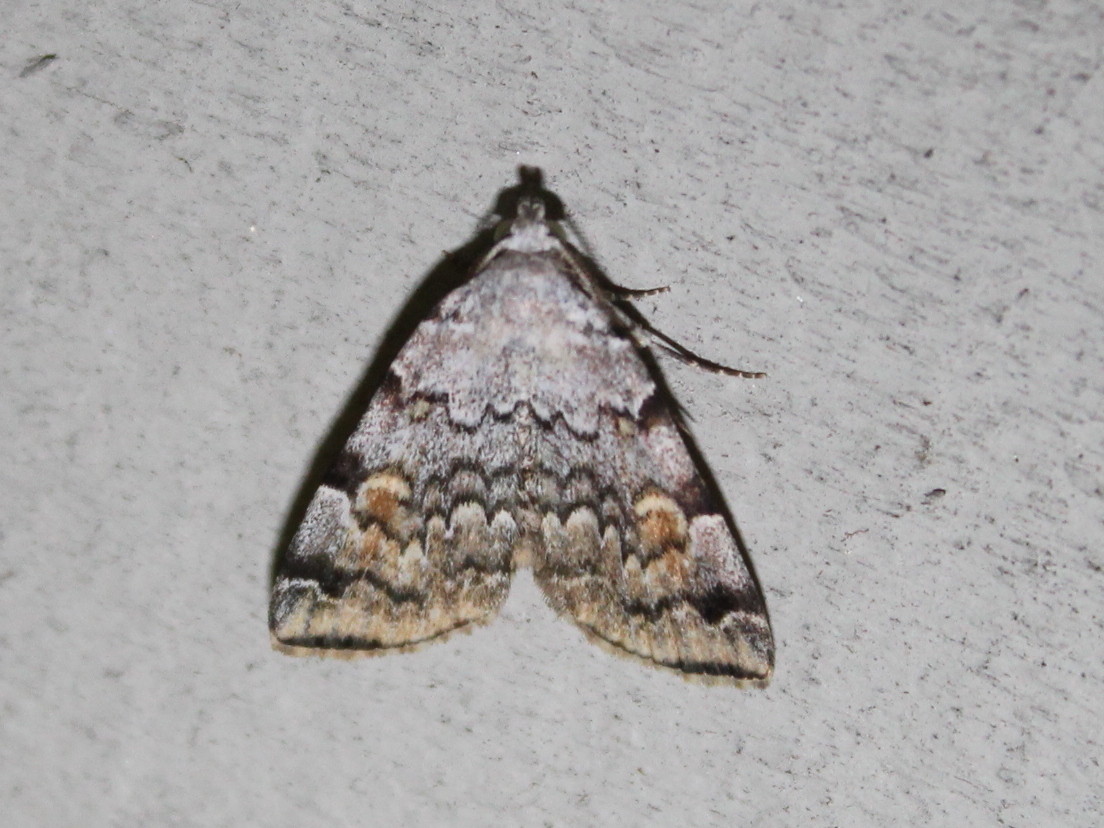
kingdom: Animalia
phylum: Arthropoda
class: Insecta
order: Lepidoptera
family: Erebidae
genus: Idia
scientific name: Idia americalis
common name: American idia moth
